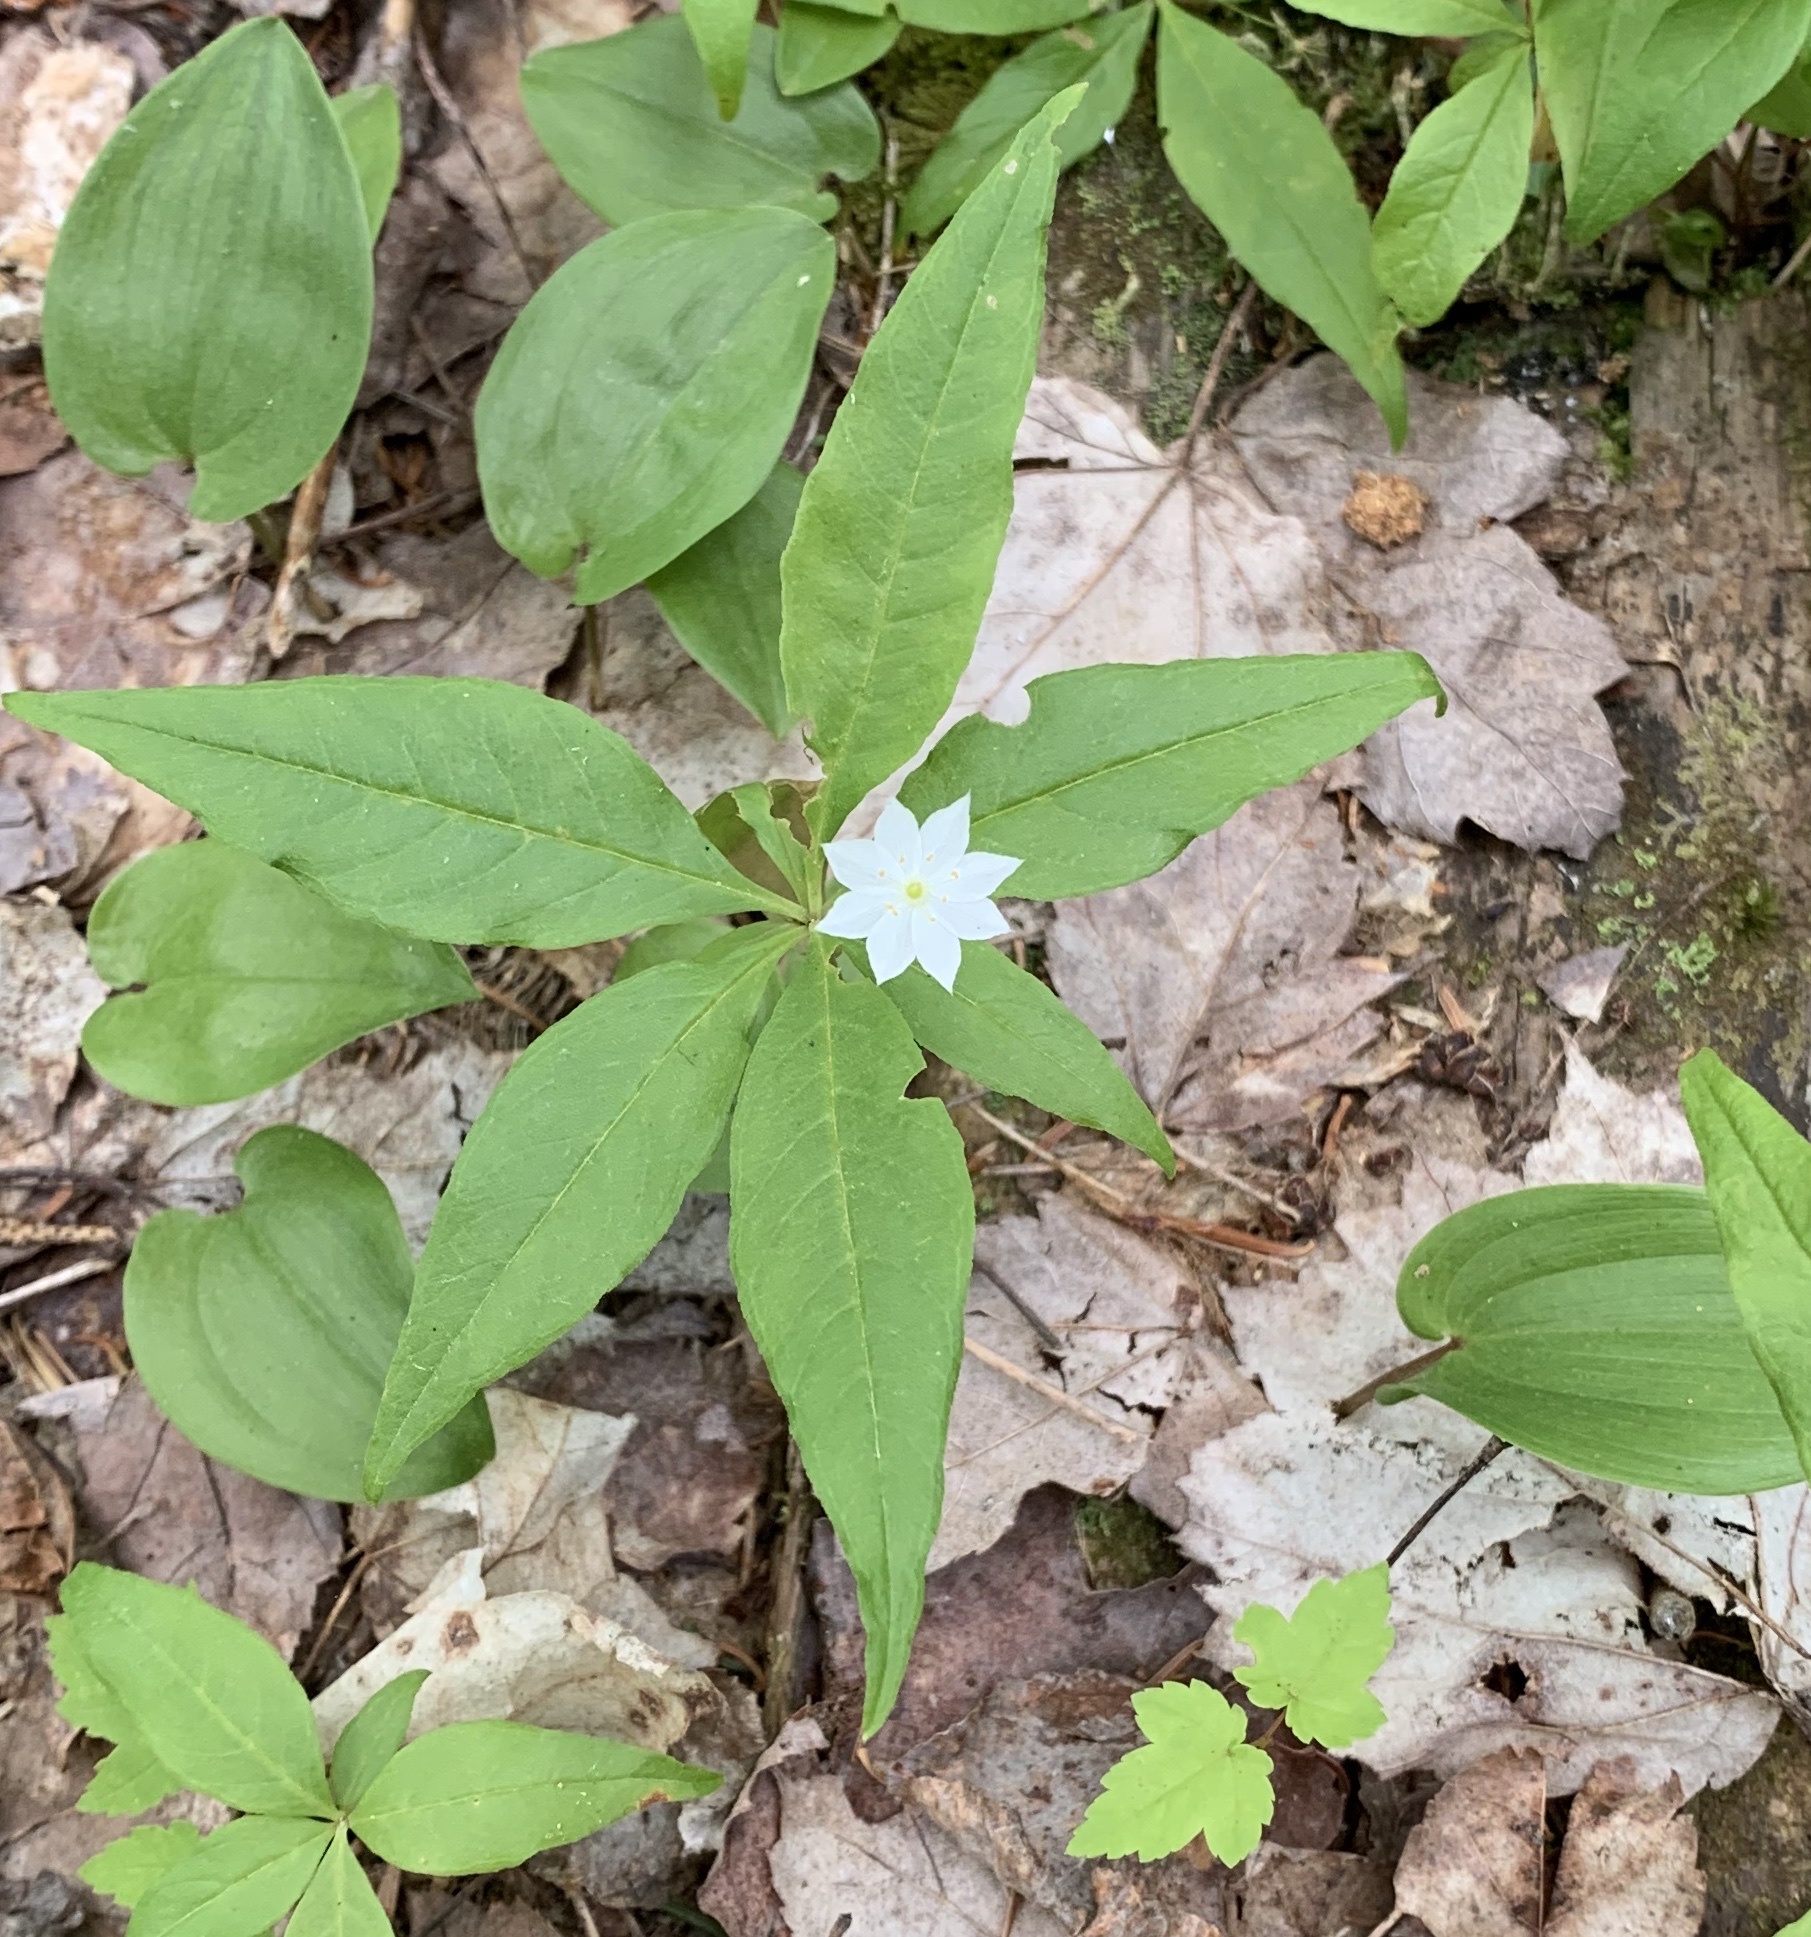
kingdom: Plantae
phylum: Tracheophyta
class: Magnoliopsida
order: Ericales
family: Primulaceae
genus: Lysimachia
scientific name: Lysimachia borealis
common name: American starflower
